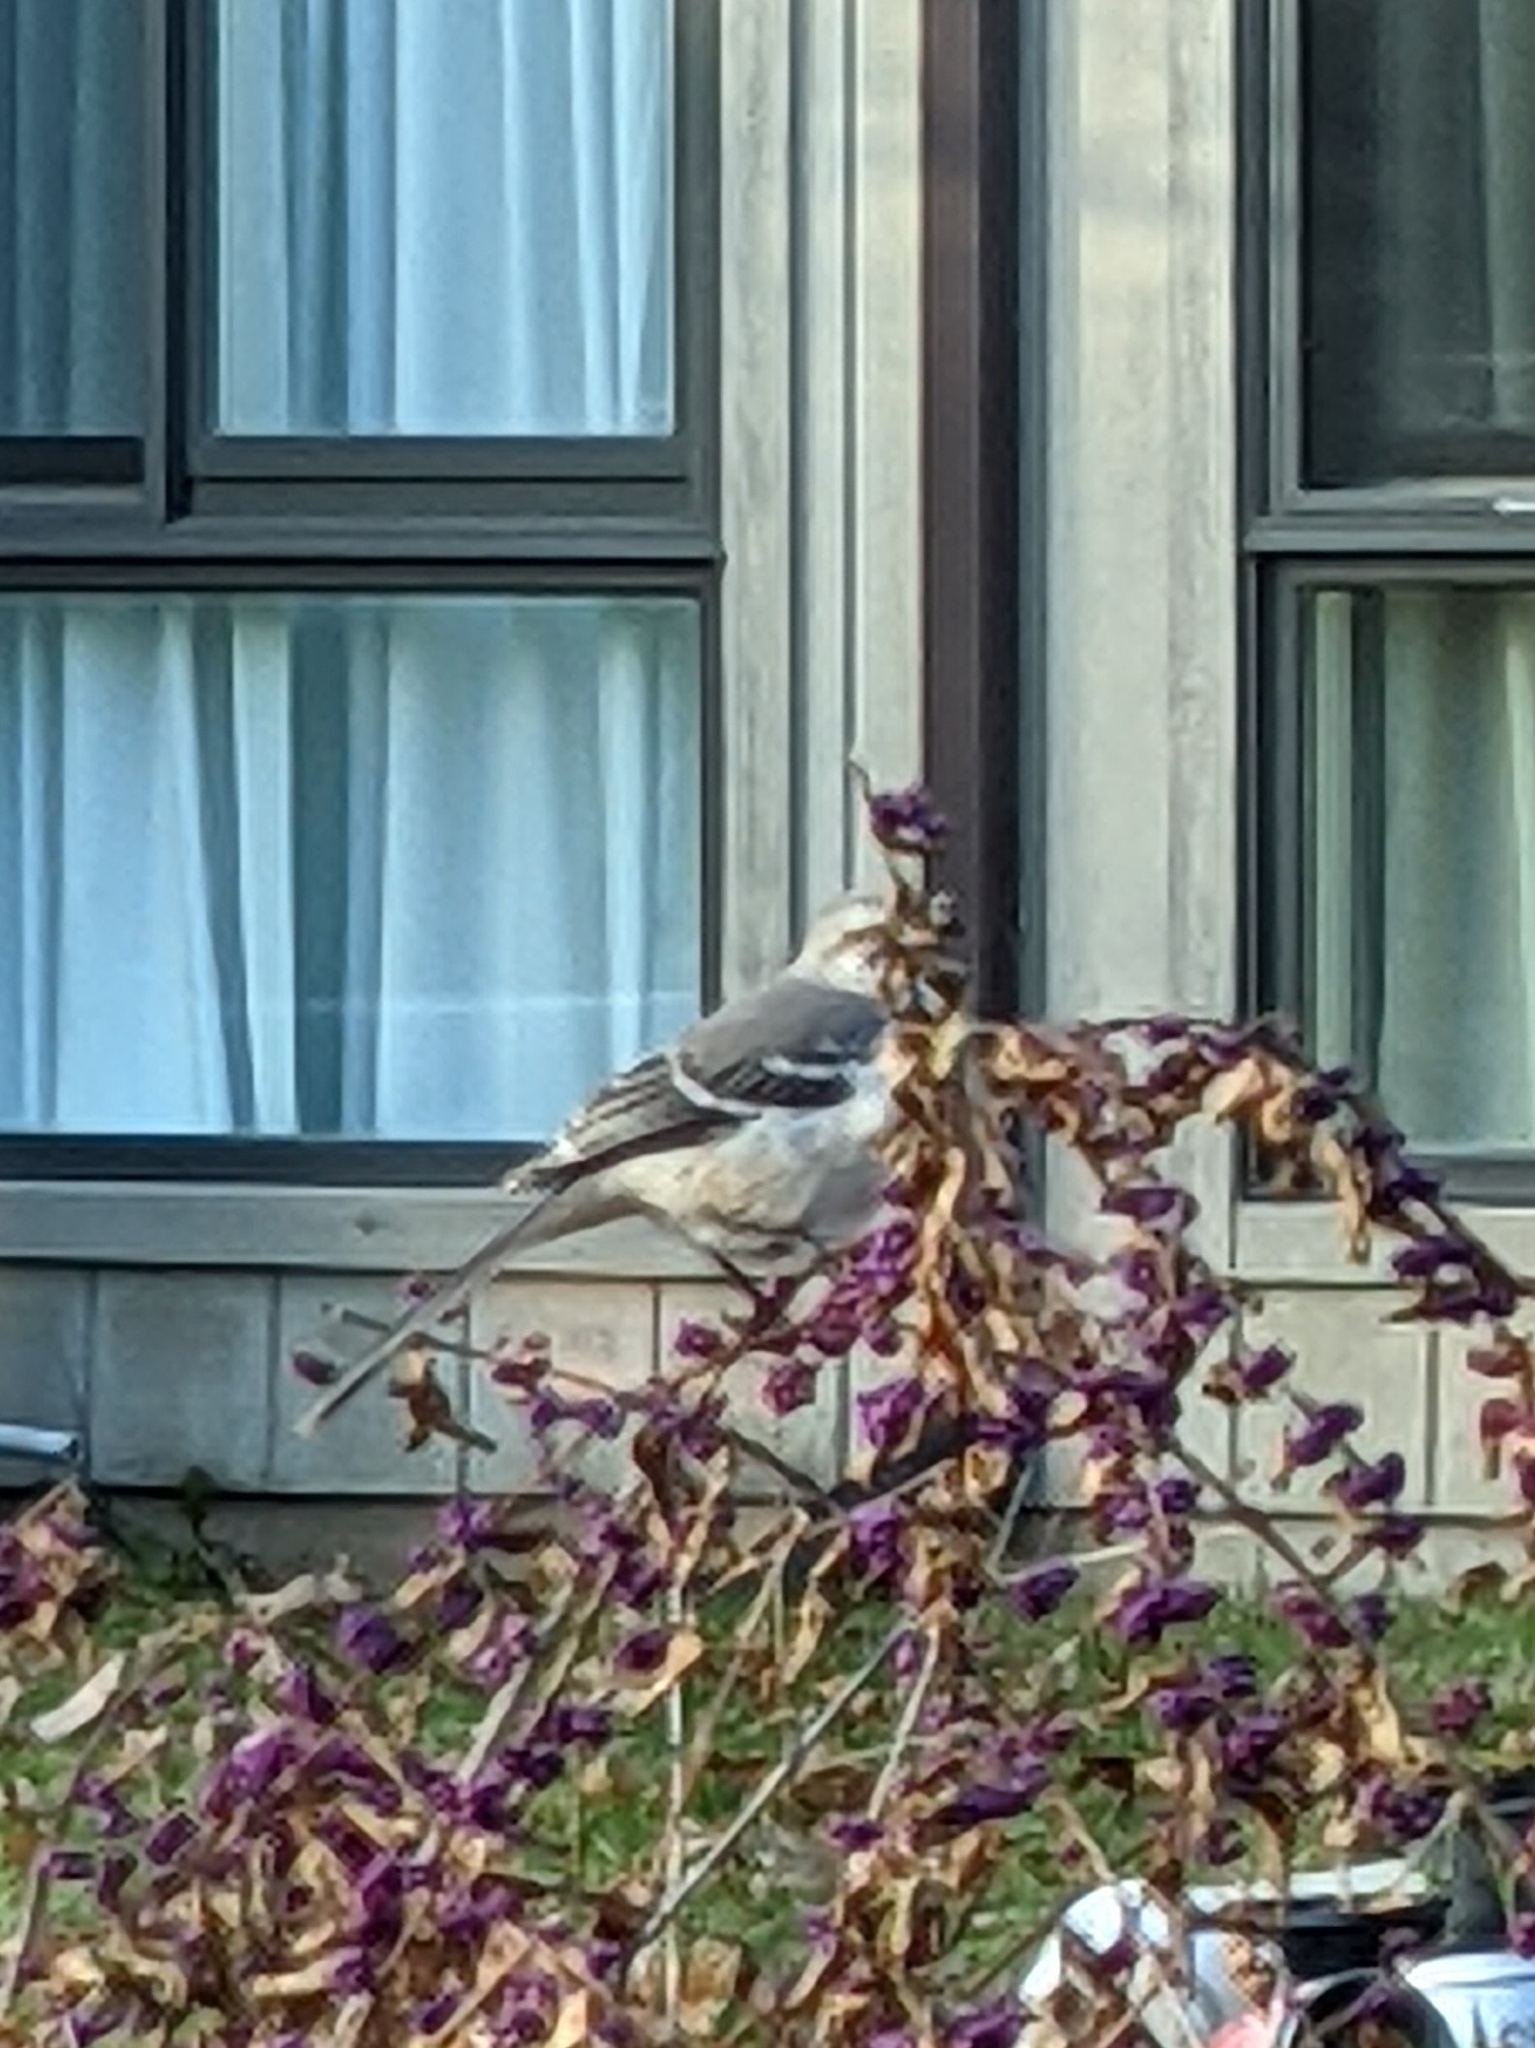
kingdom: Animalia
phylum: Chordata
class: Aves
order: Passeriformes
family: Mimidae
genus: Mimus
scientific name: Mimus polyglottos
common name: Northern mockingbird
